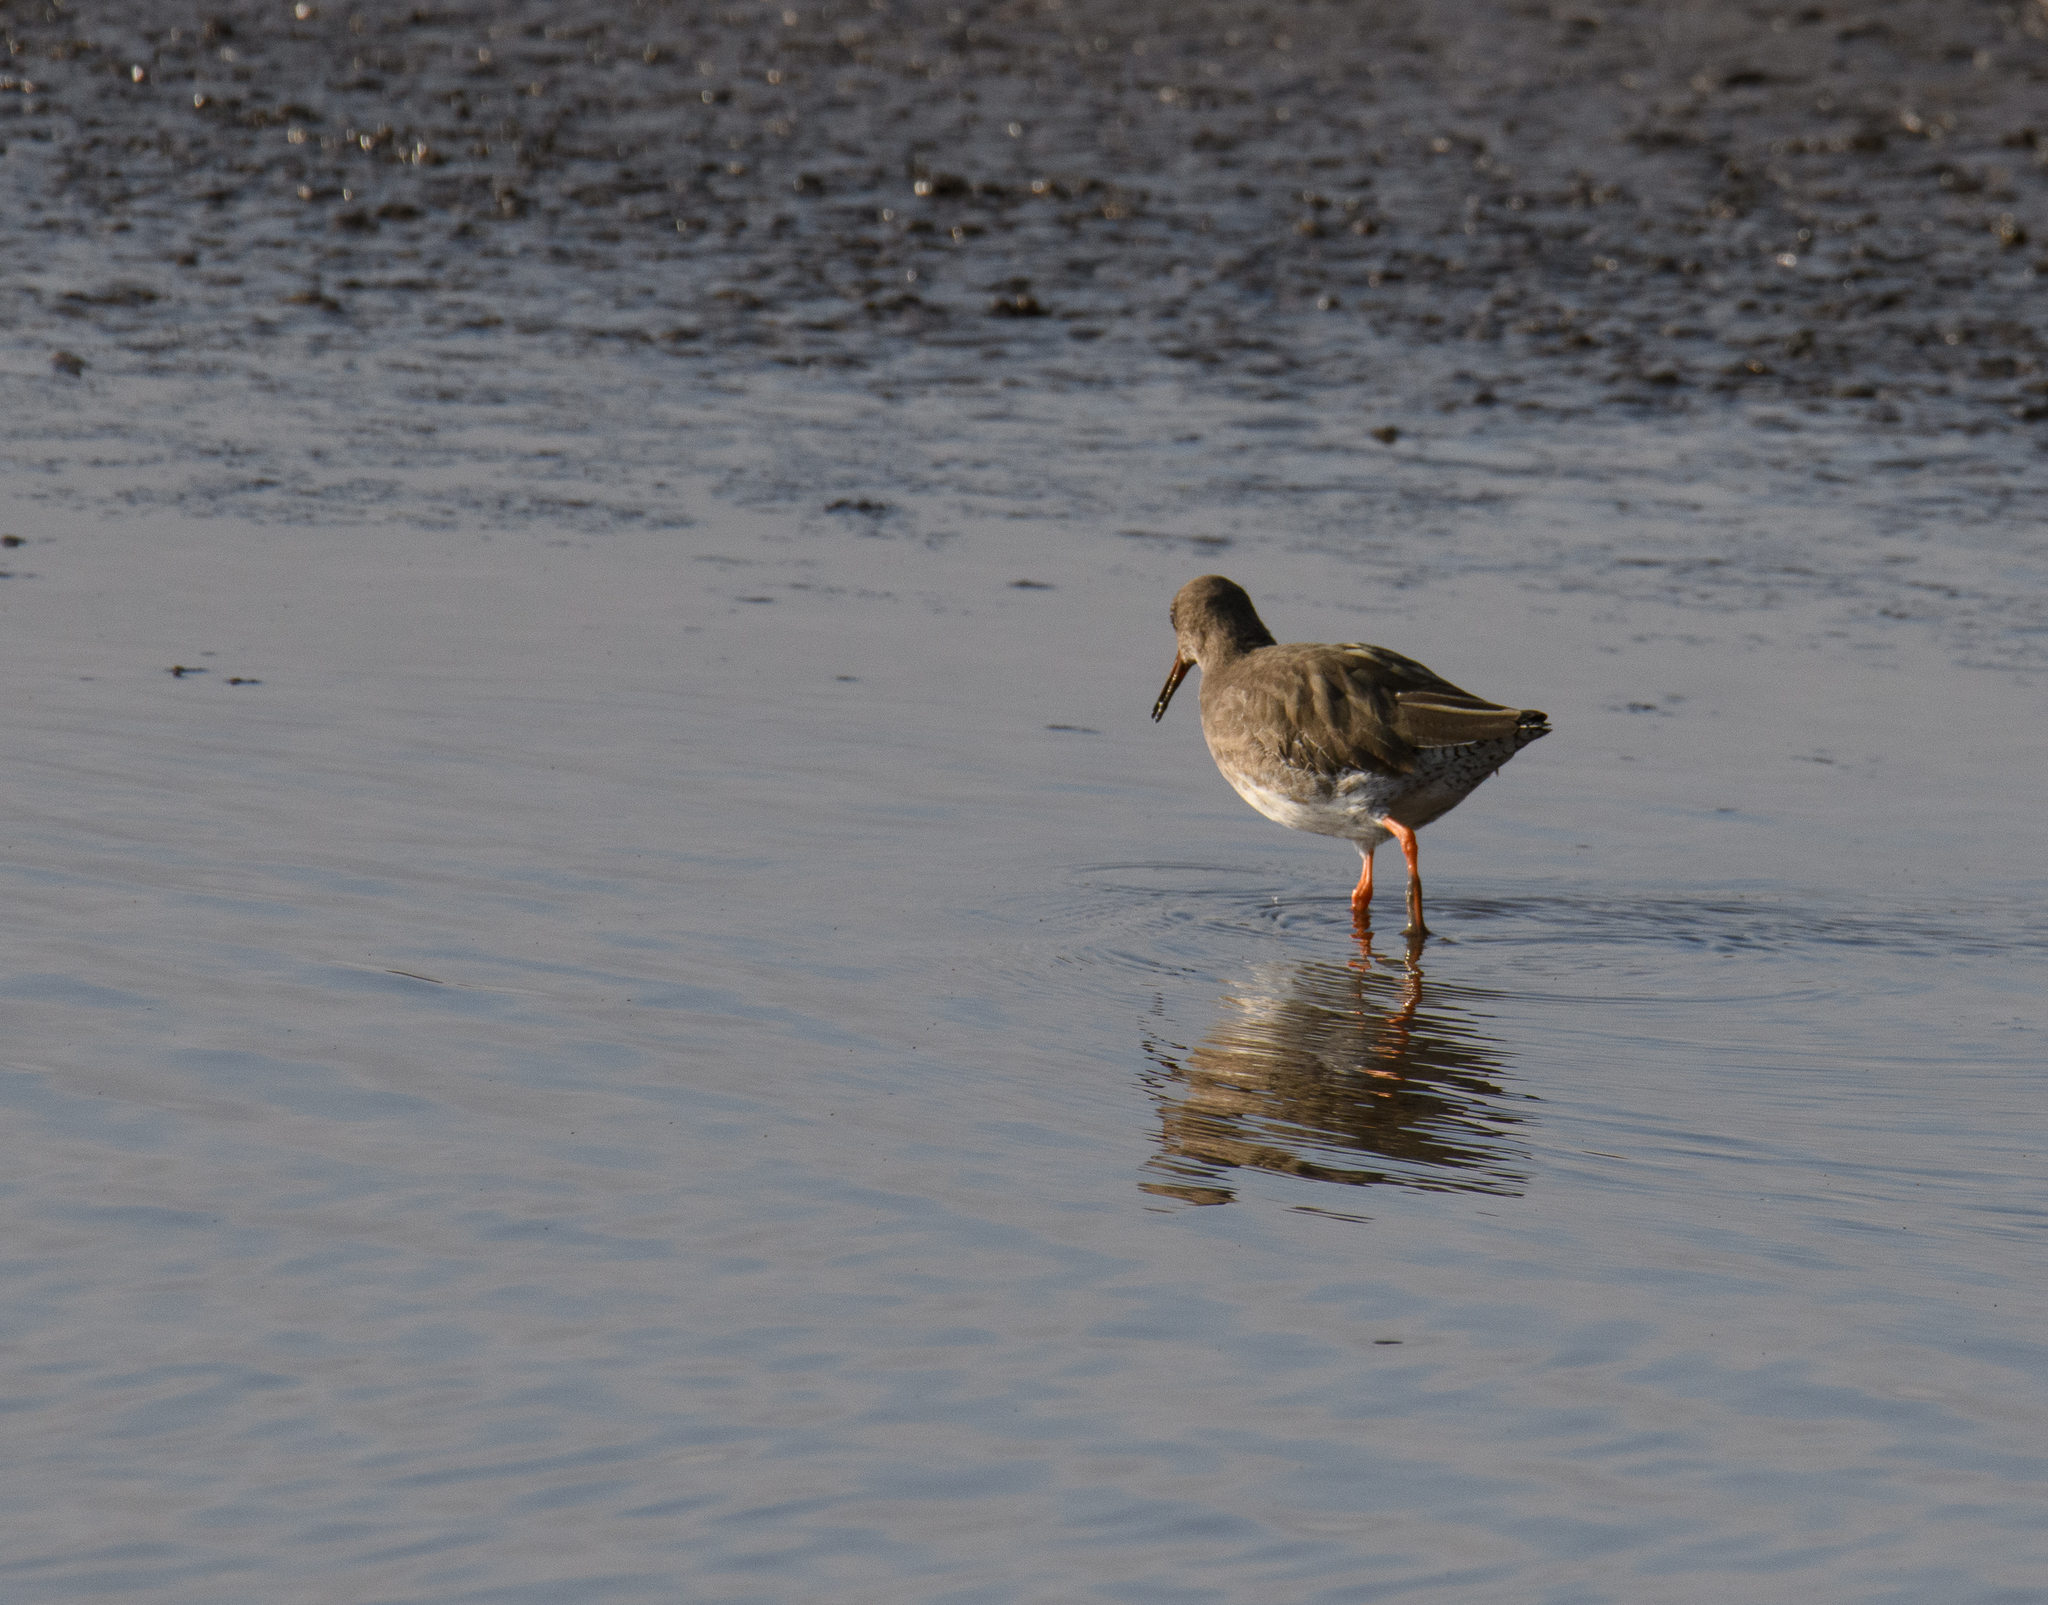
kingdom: Animalia
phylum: Chordata
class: Aves
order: Charadriiformes
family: Scolopacidae
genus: Tringa
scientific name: Tringa totanus
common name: Common redshank
